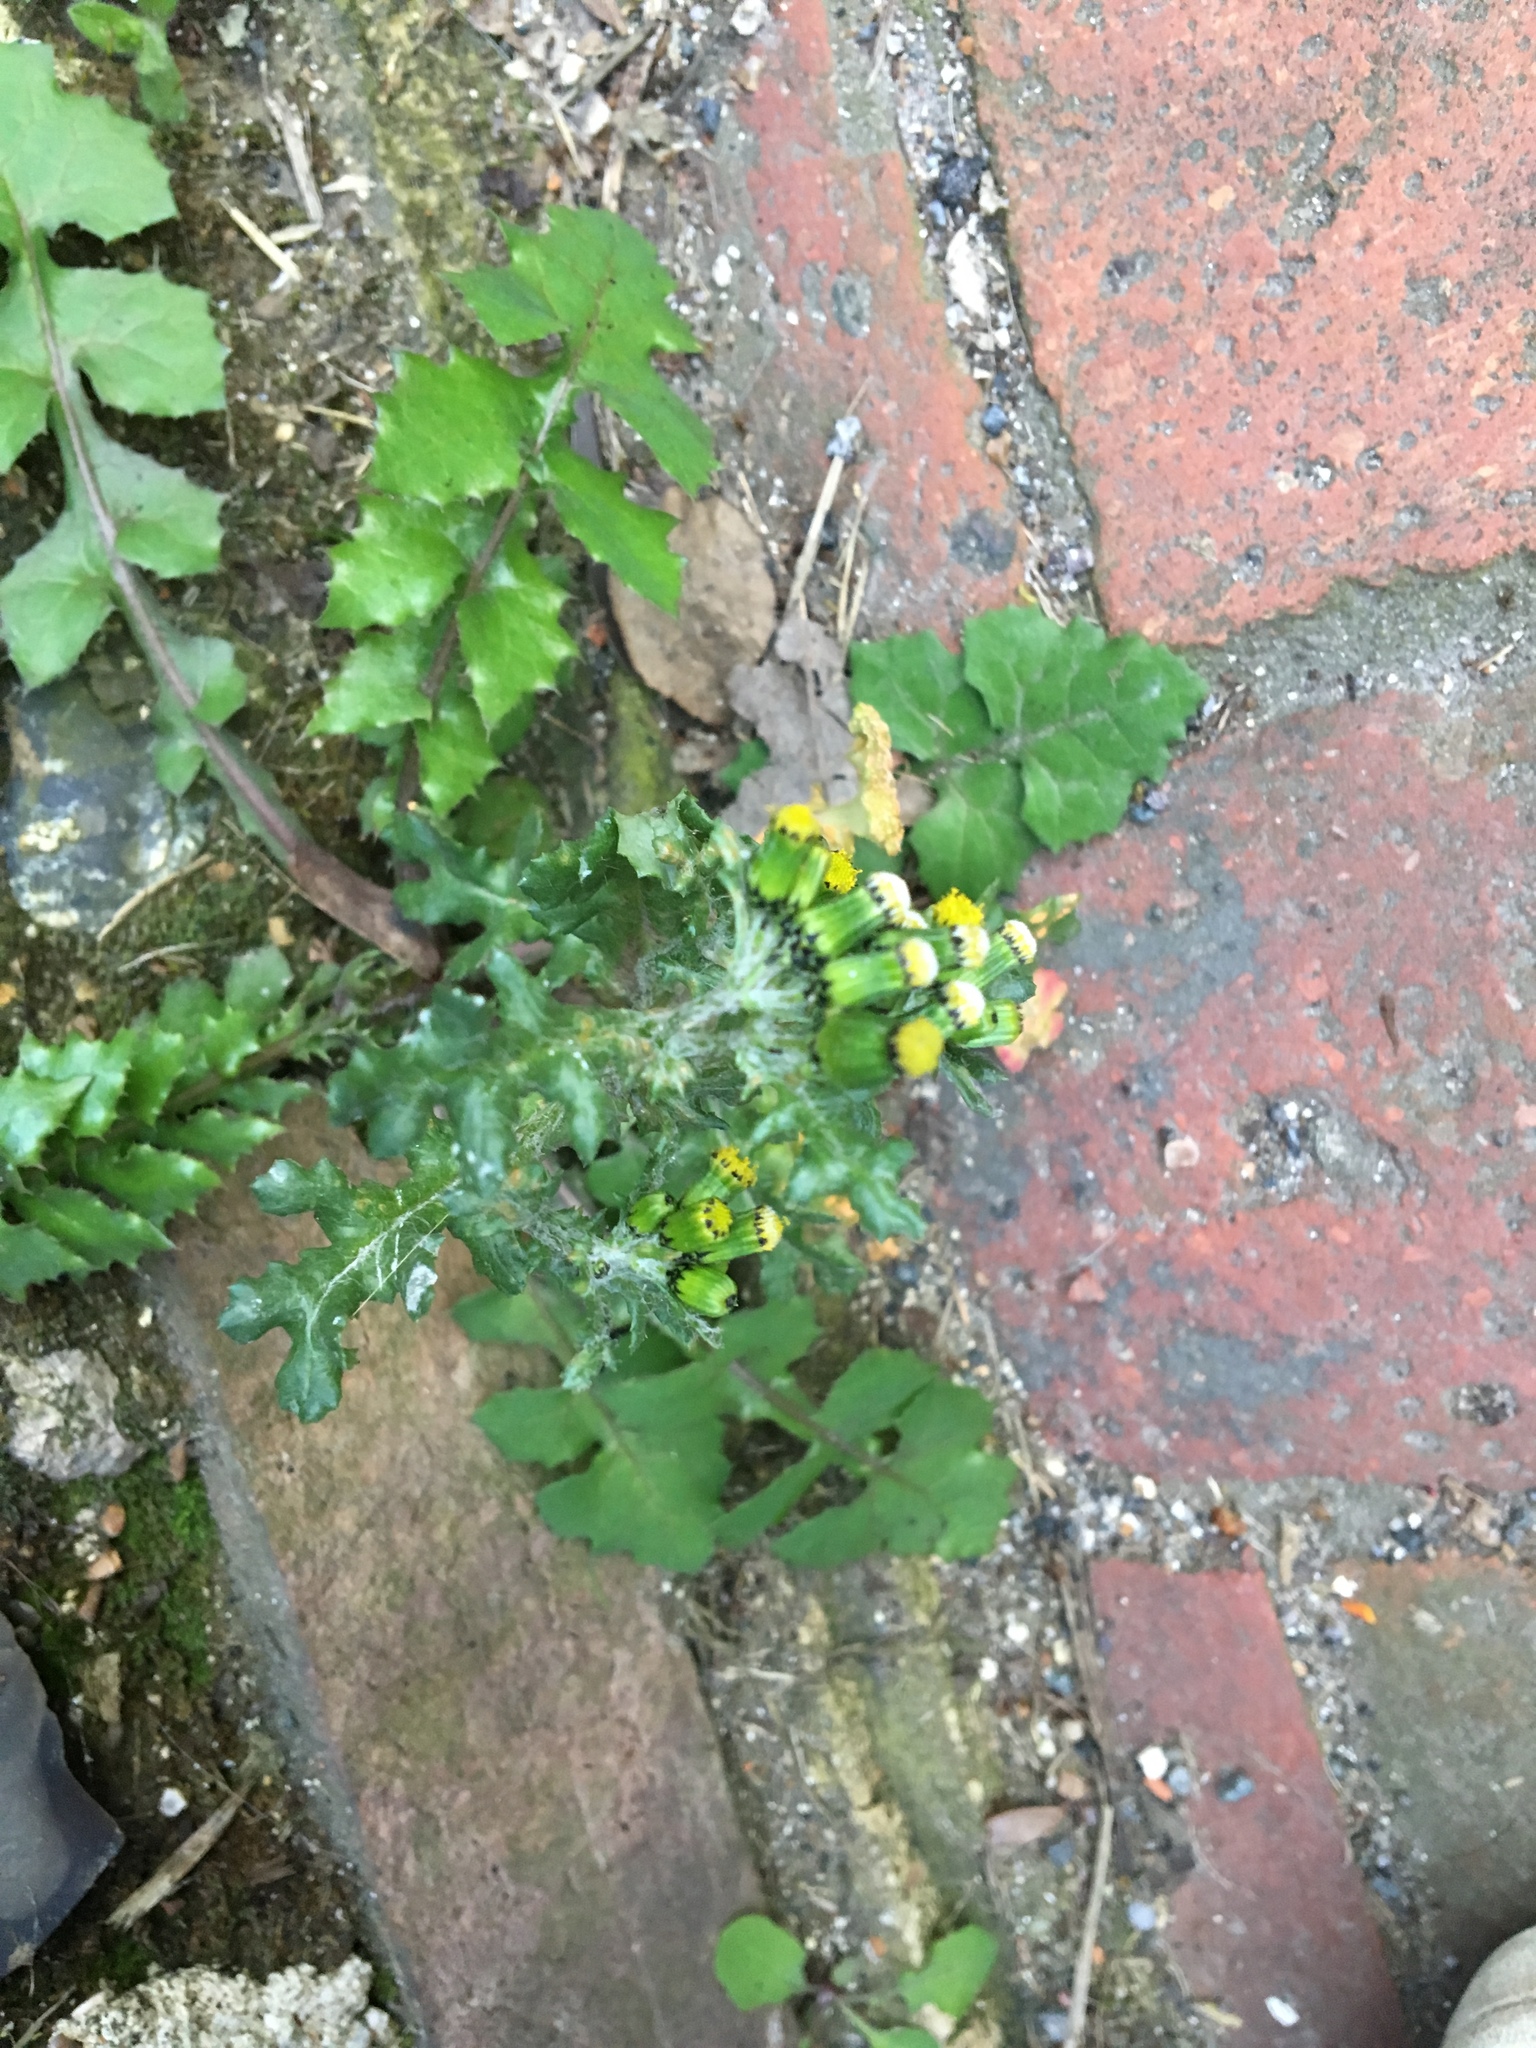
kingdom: Plantae
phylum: Tracheophyta
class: Magnoliopsida
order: Asterales
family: Asteraceae
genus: Senecio
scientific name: Senecio vulgaris
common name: Old-man-in-the-spring
